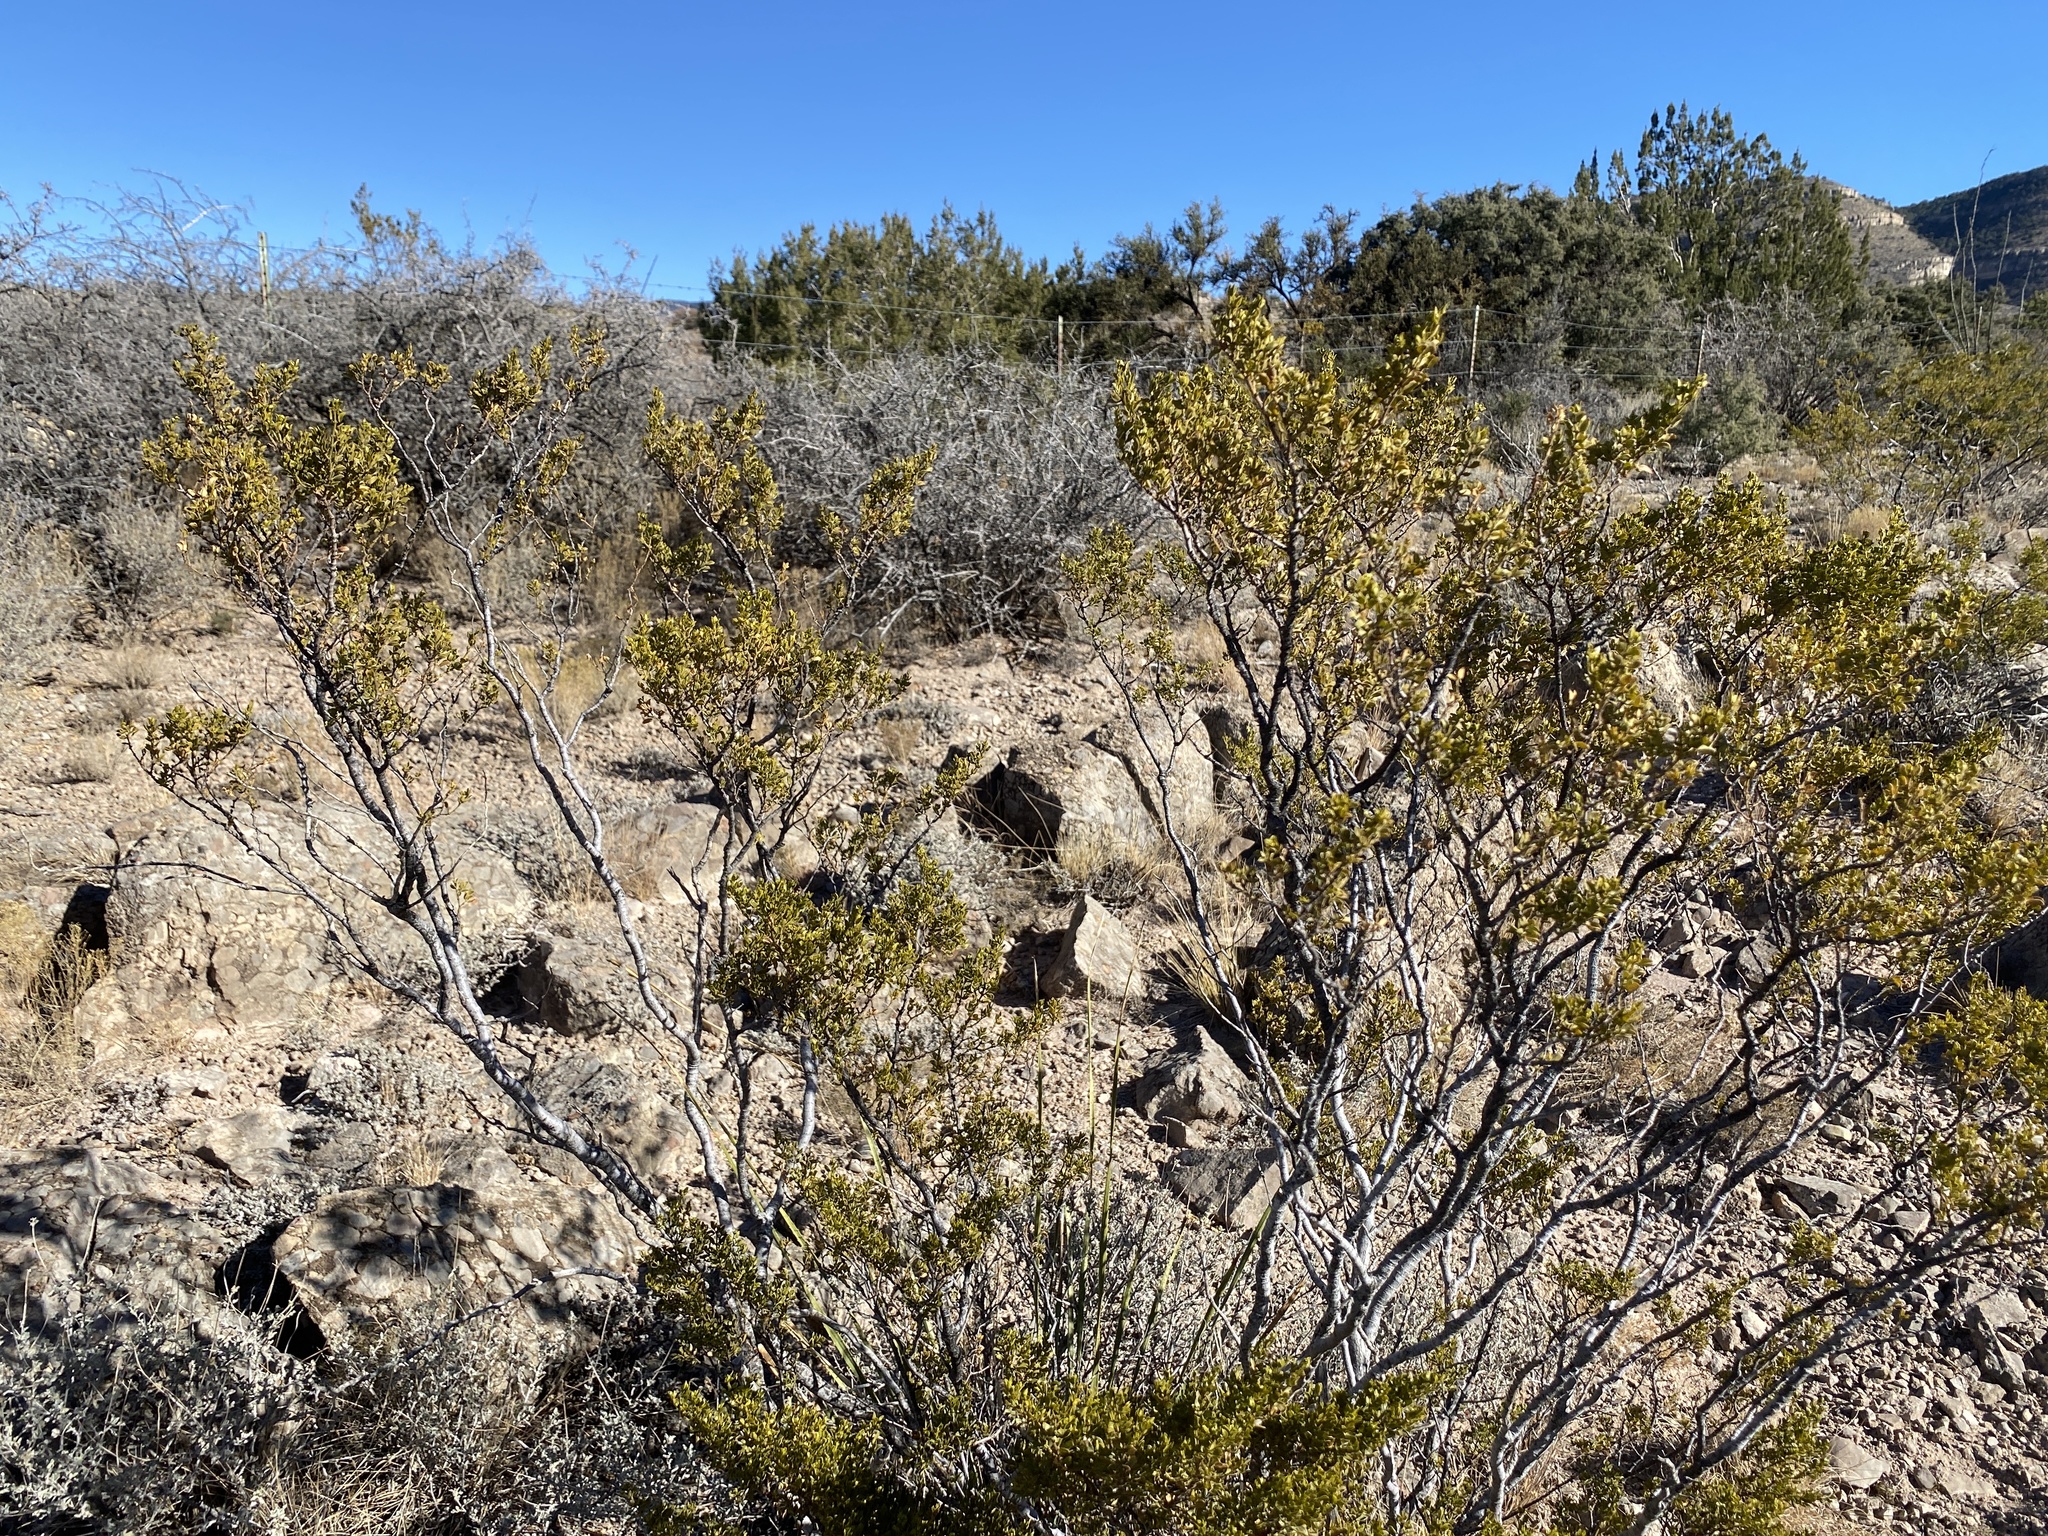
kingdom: Plantae
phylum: Tracheophyta
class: Magnoliopsida
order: Zygophyllales
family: Zygophyllaceae
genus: Larrea
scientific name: Larrea tridentata
